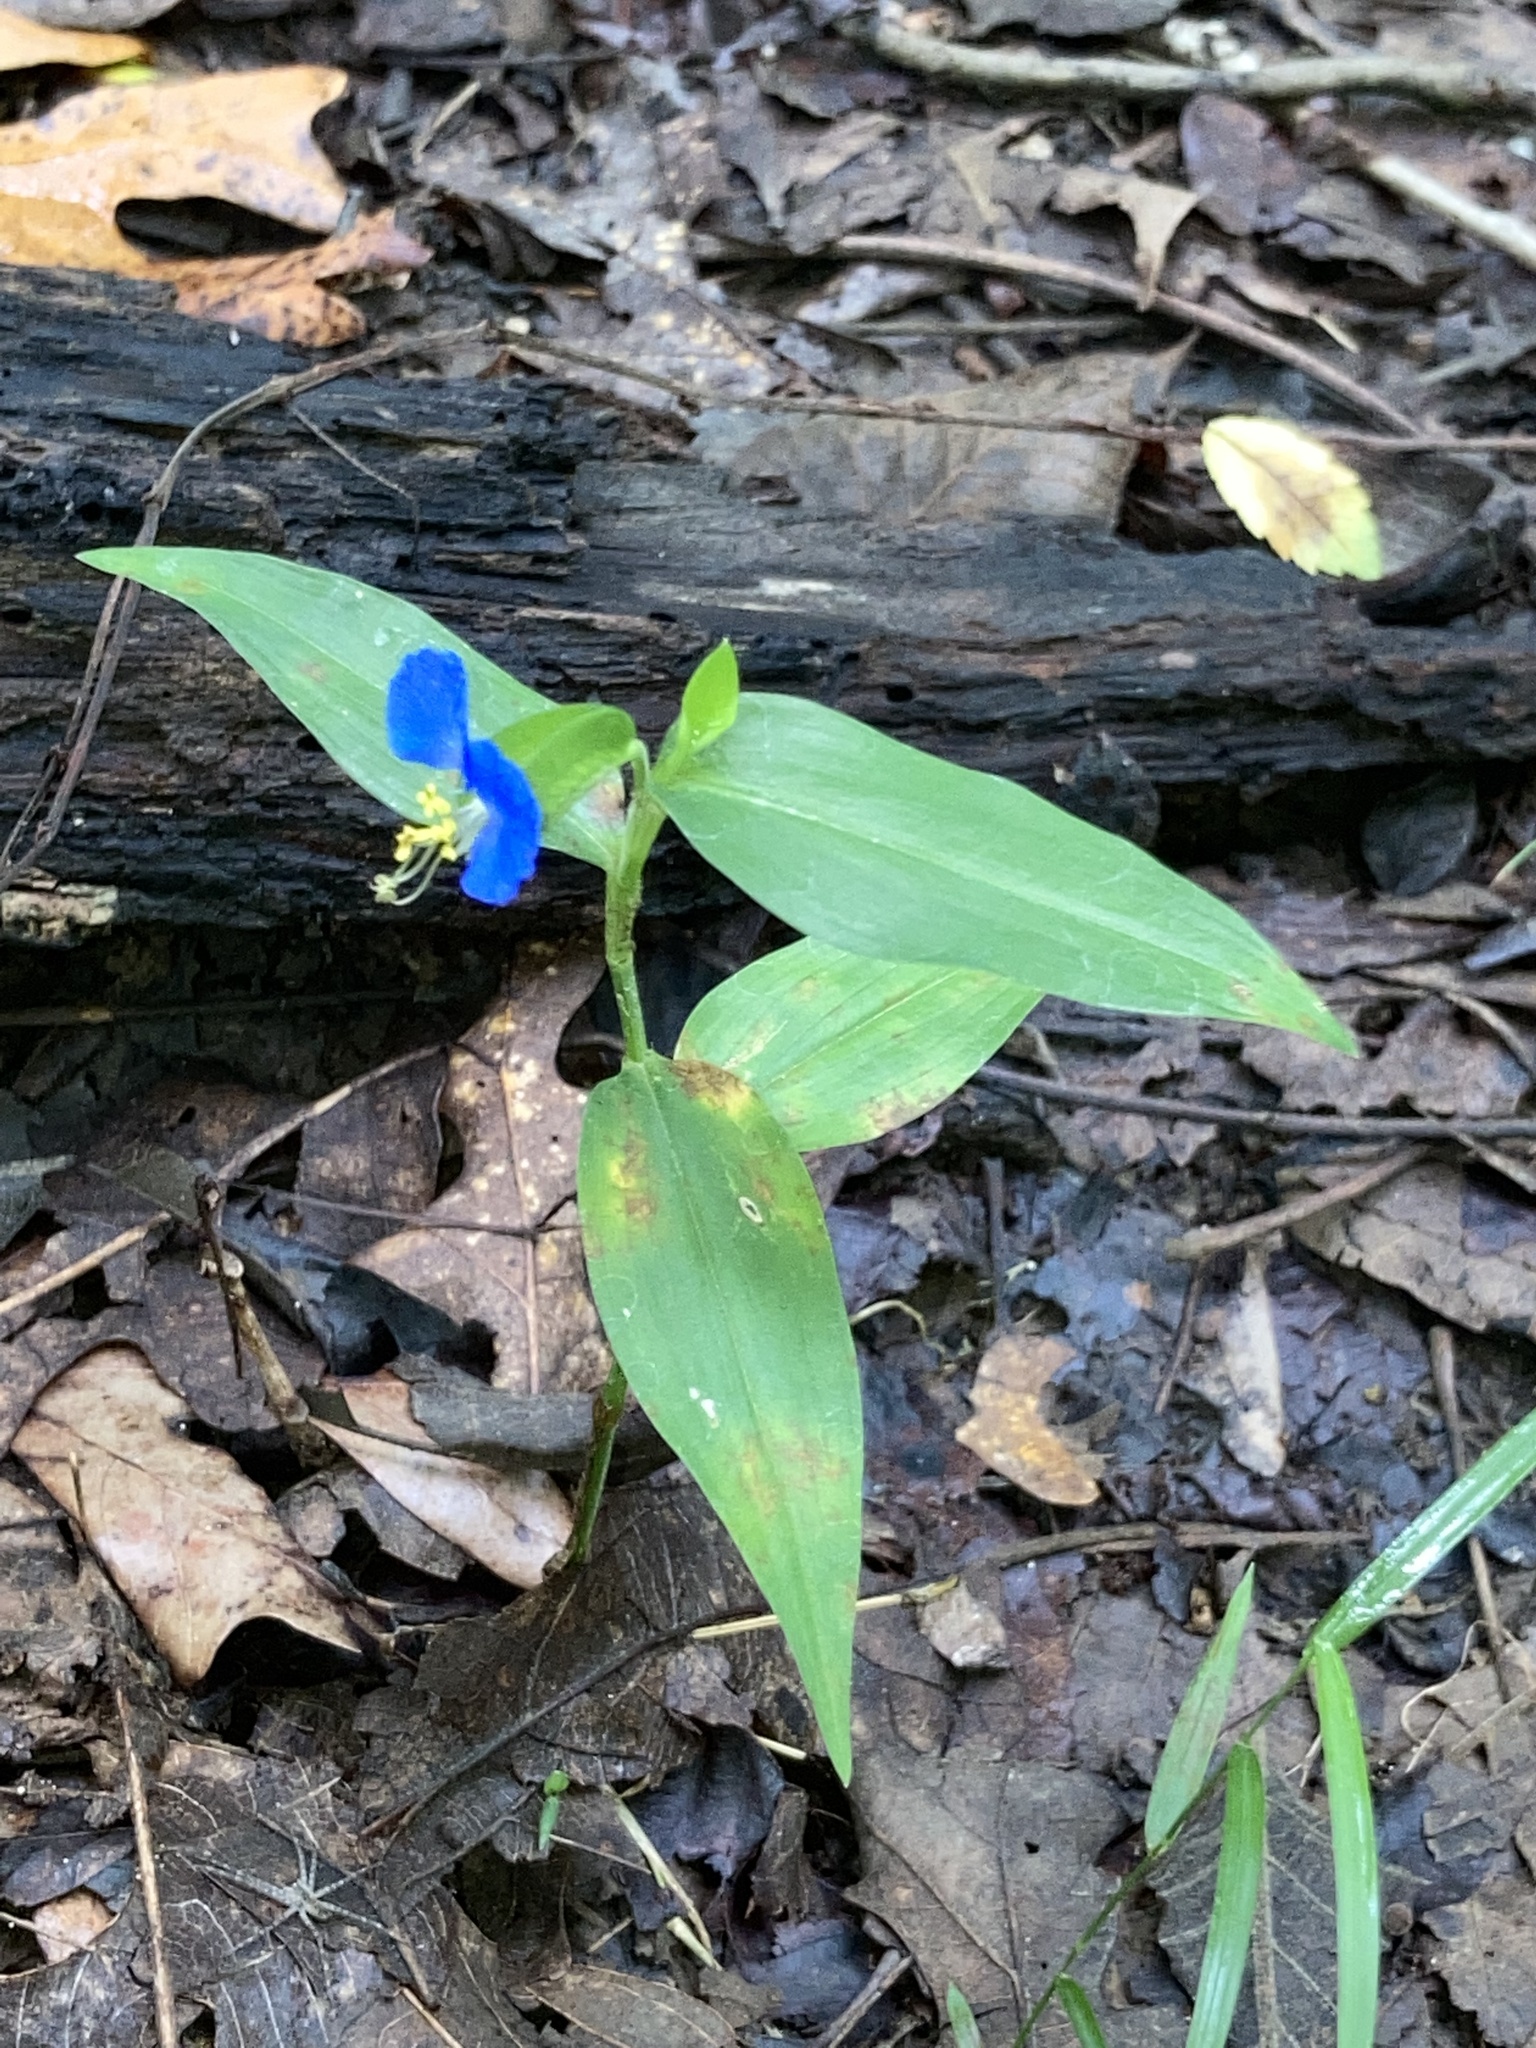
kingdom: Plantae
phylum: Tracheophyta
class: Liliopsida
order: Commelinales
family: Commelinaceae
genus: Commelina
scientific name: Commelina communis
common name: Asiatic dayflower
